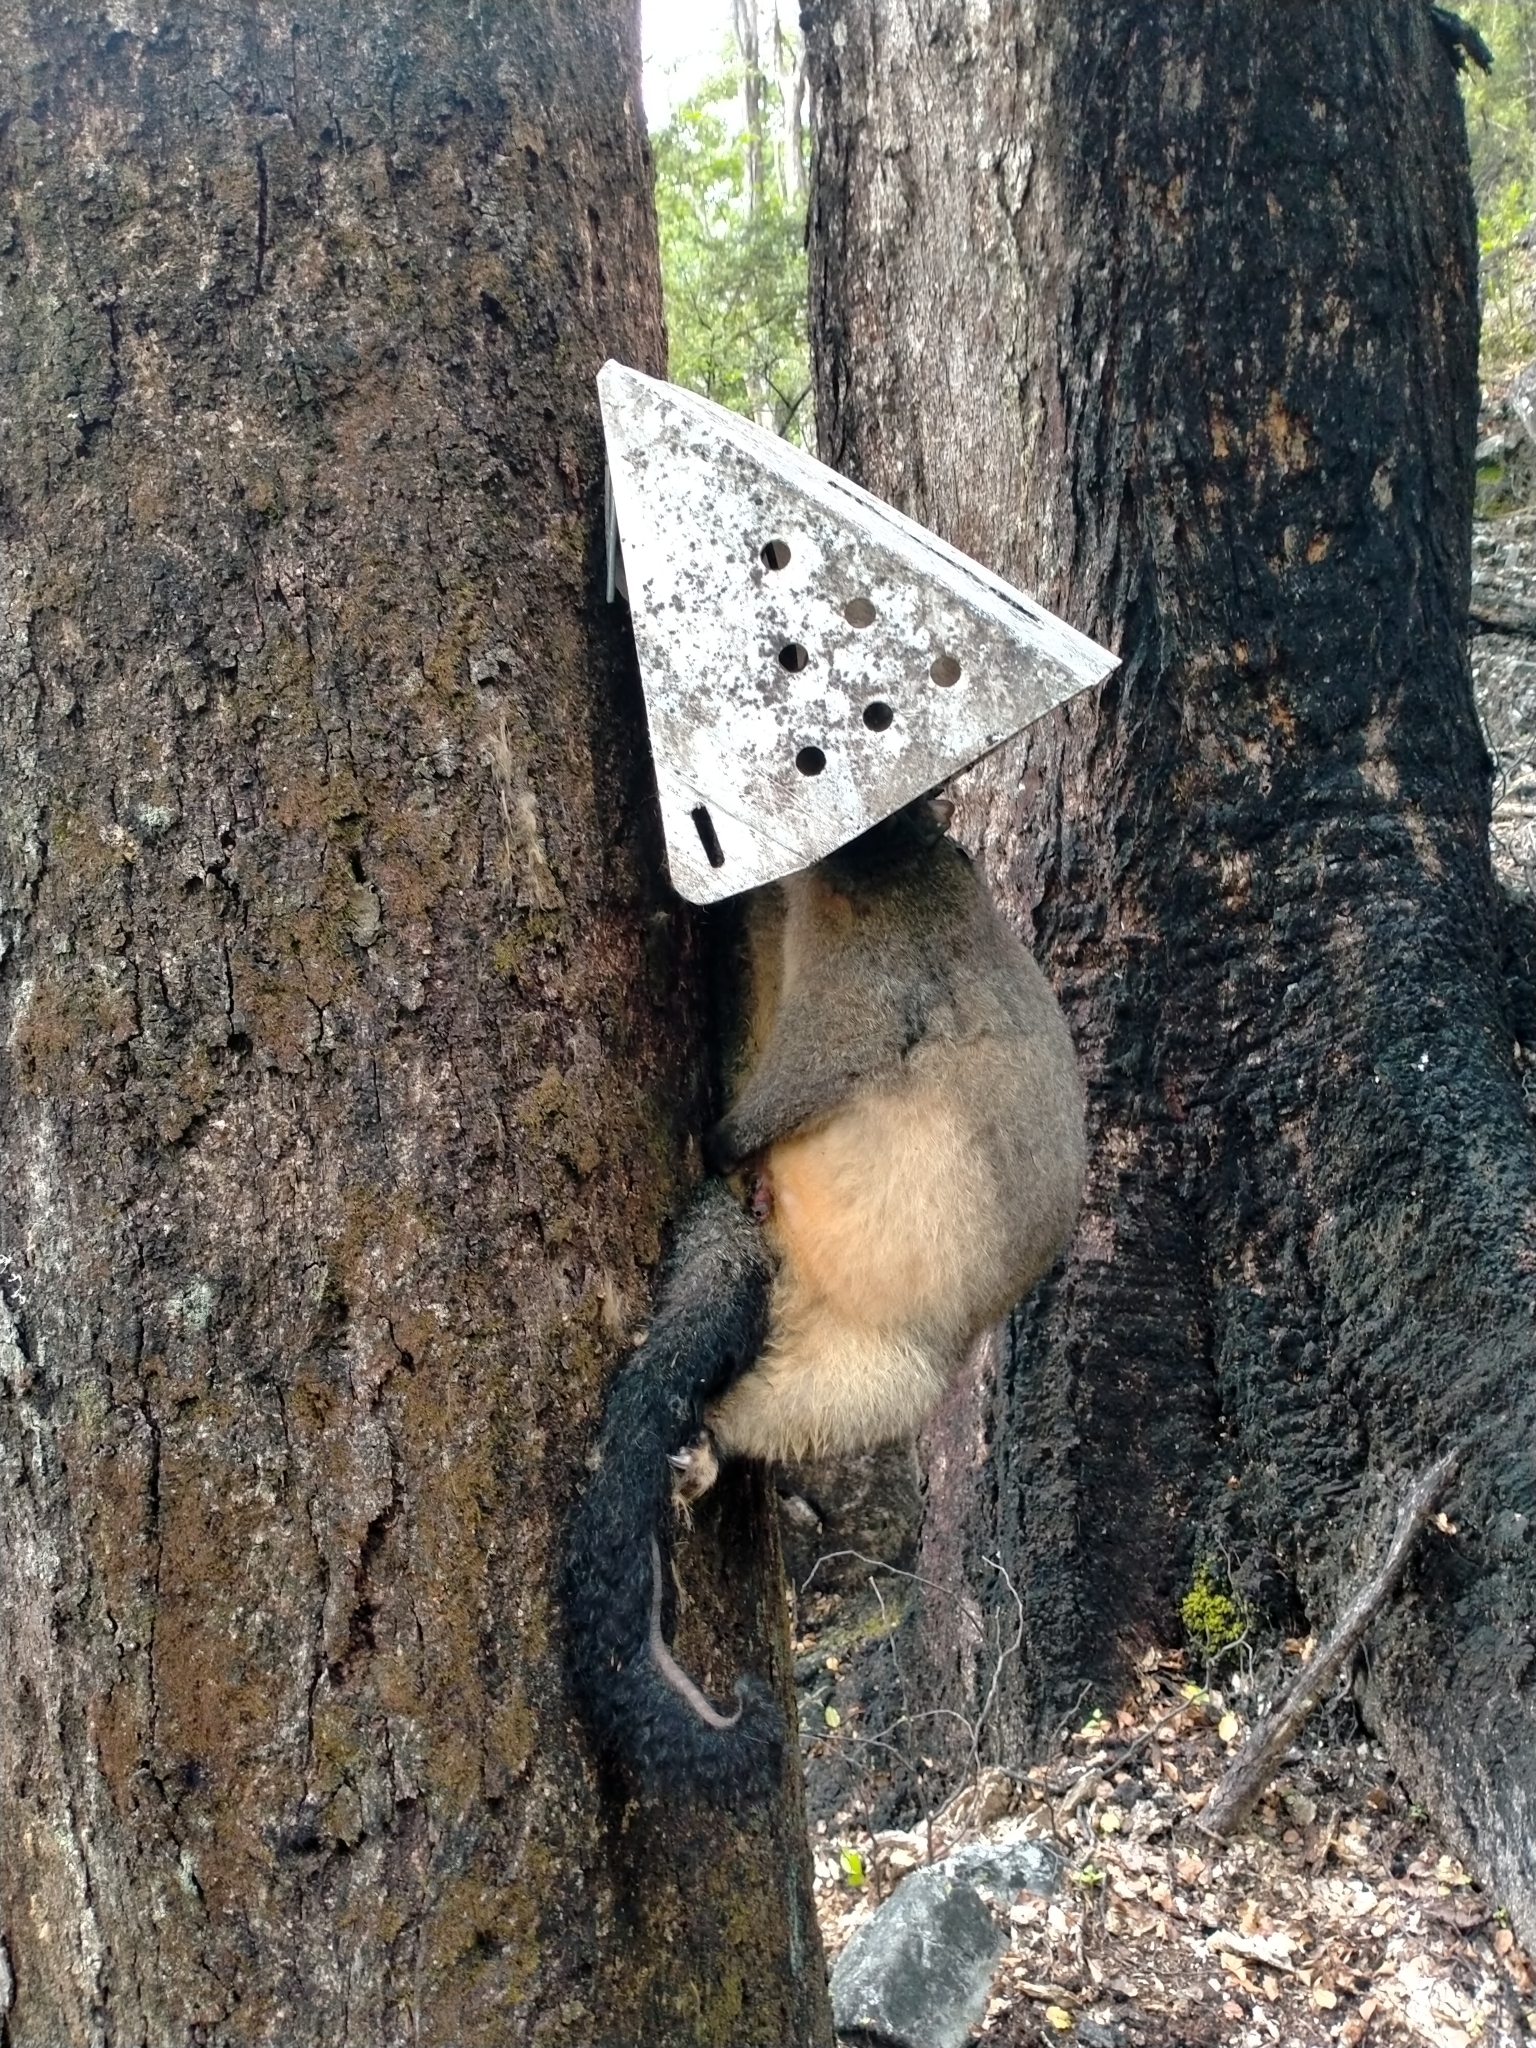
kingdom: Animalia
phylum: Chordata
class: Mammalia
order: Diprotodontia
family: Phalangeridae
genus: Trichosurus
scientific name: Trichosurus vulpecula
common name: Common brushtail
